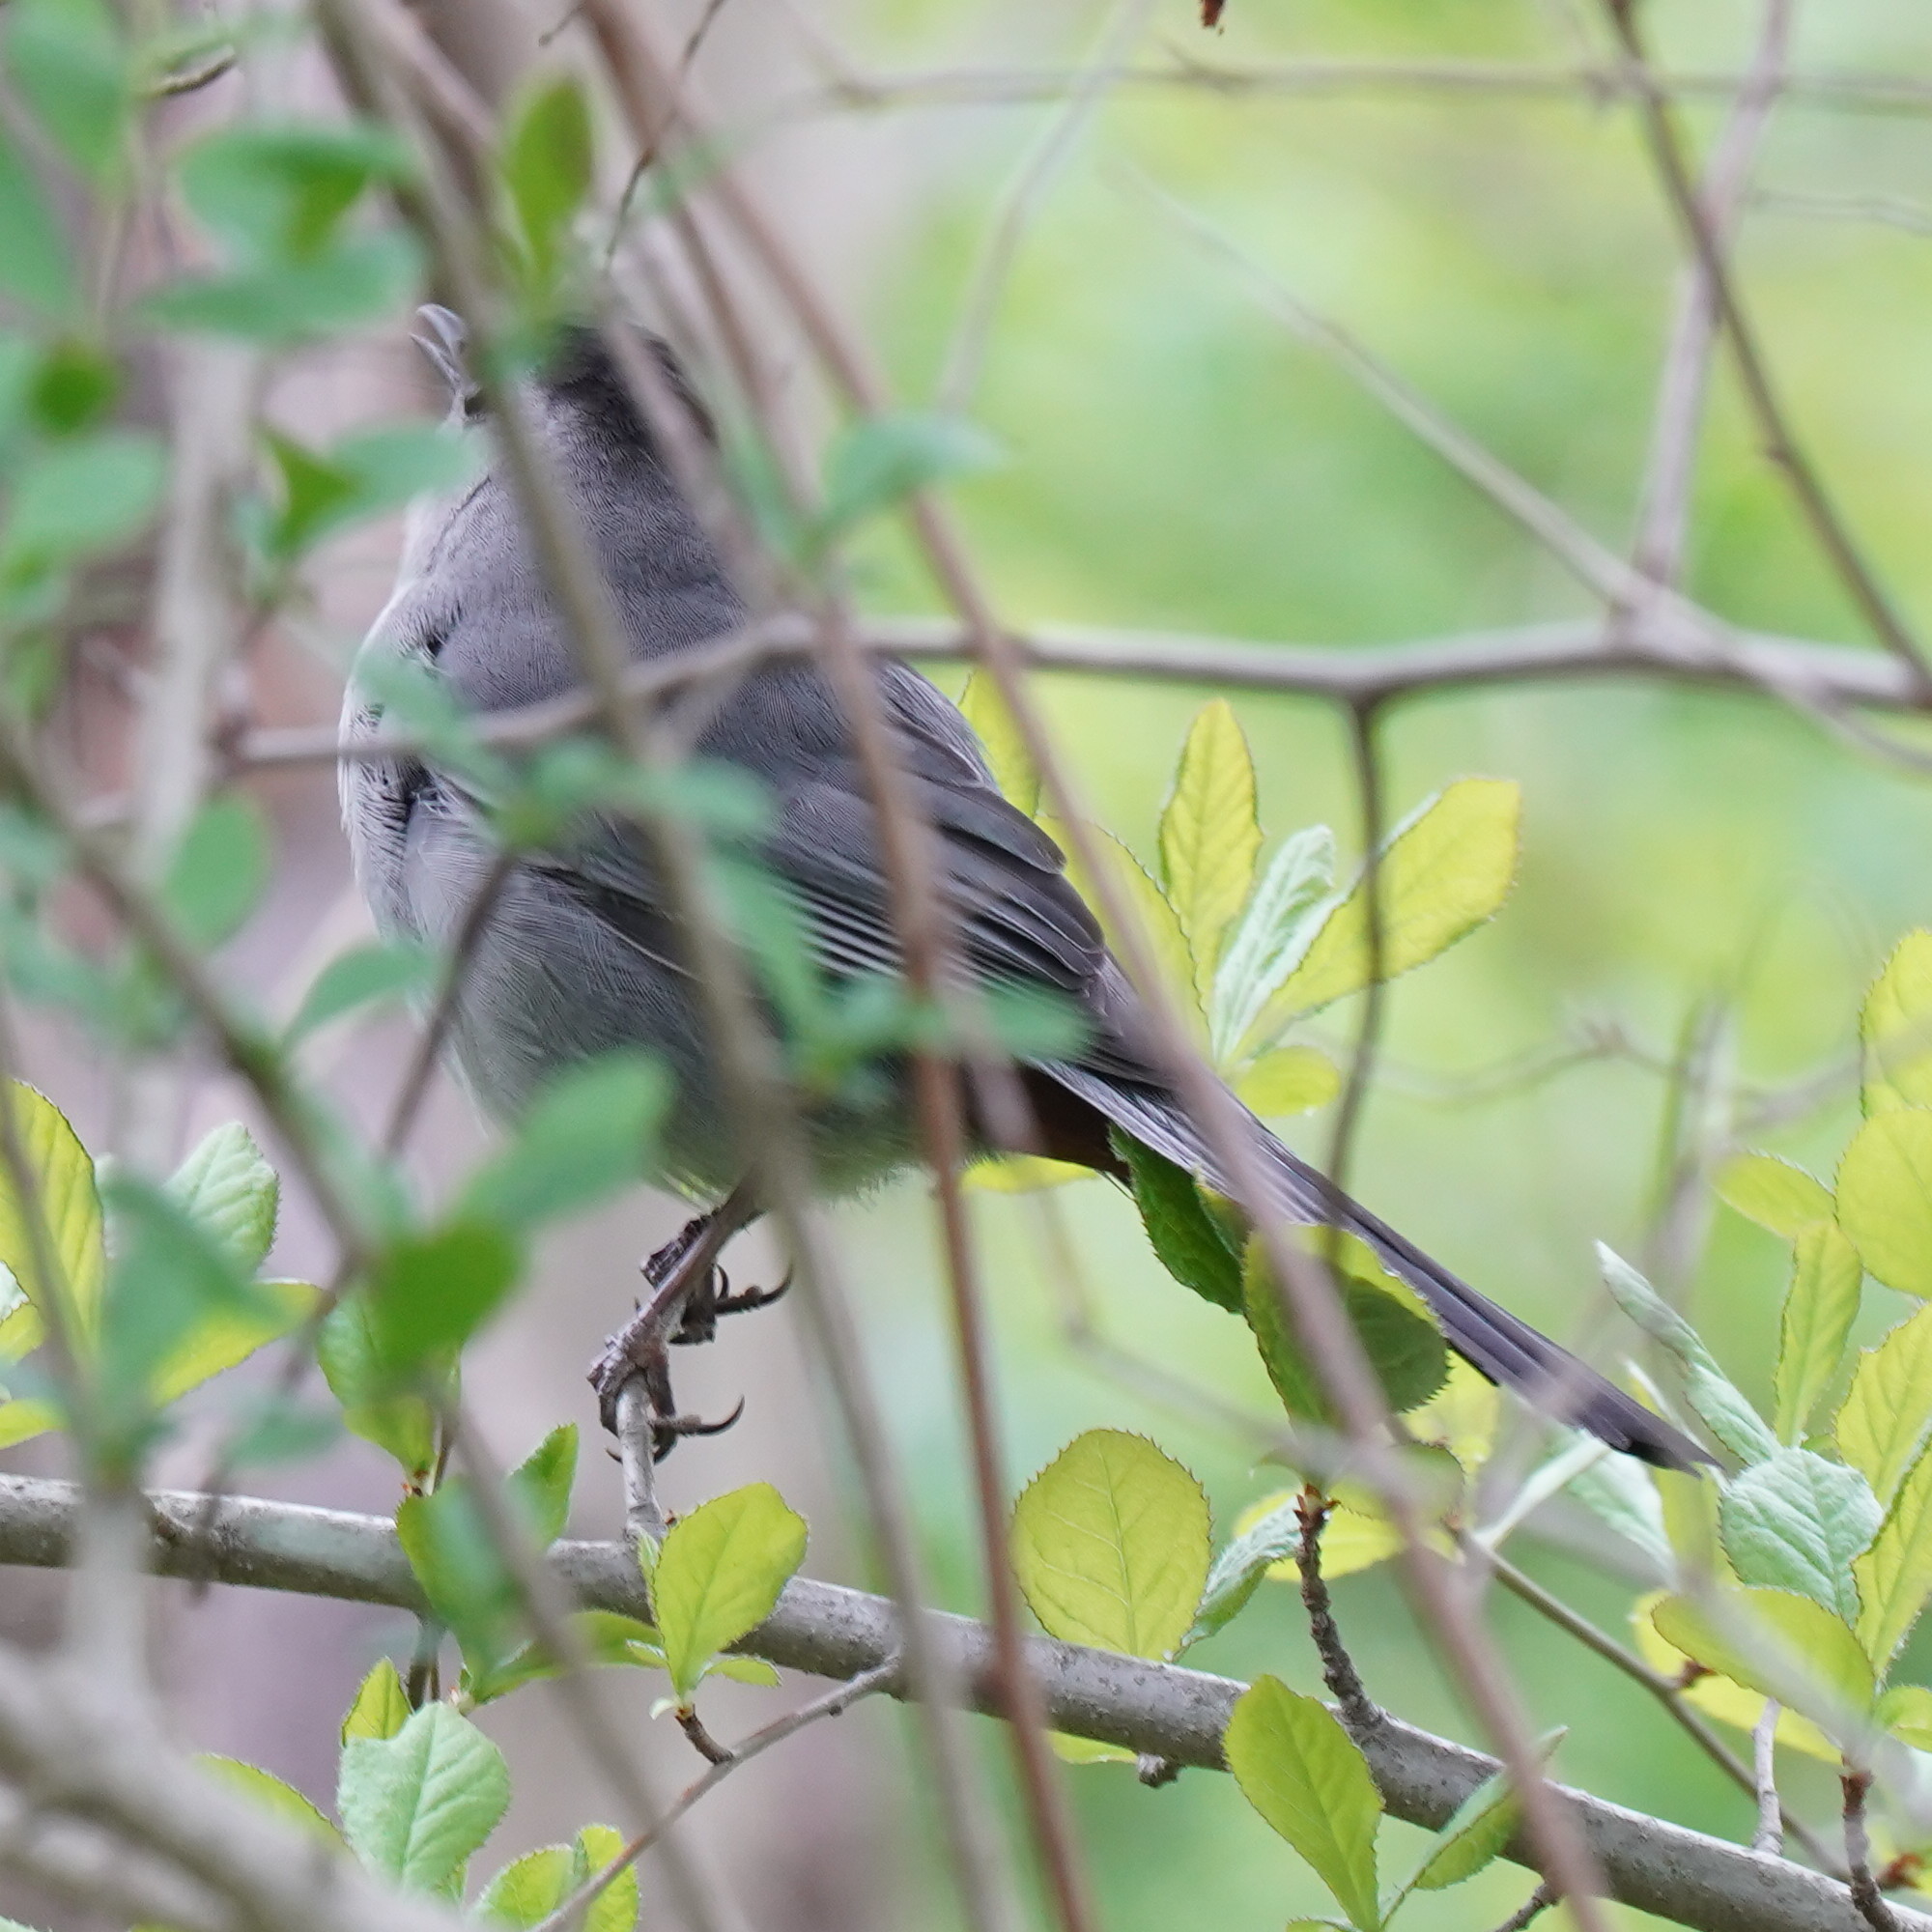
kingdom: Animalia
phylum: Chordata
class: Aves
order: Passeriformes
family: Mimidae
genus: Dumetella
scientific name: Dumetella carolinensis
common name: Gray catbird
